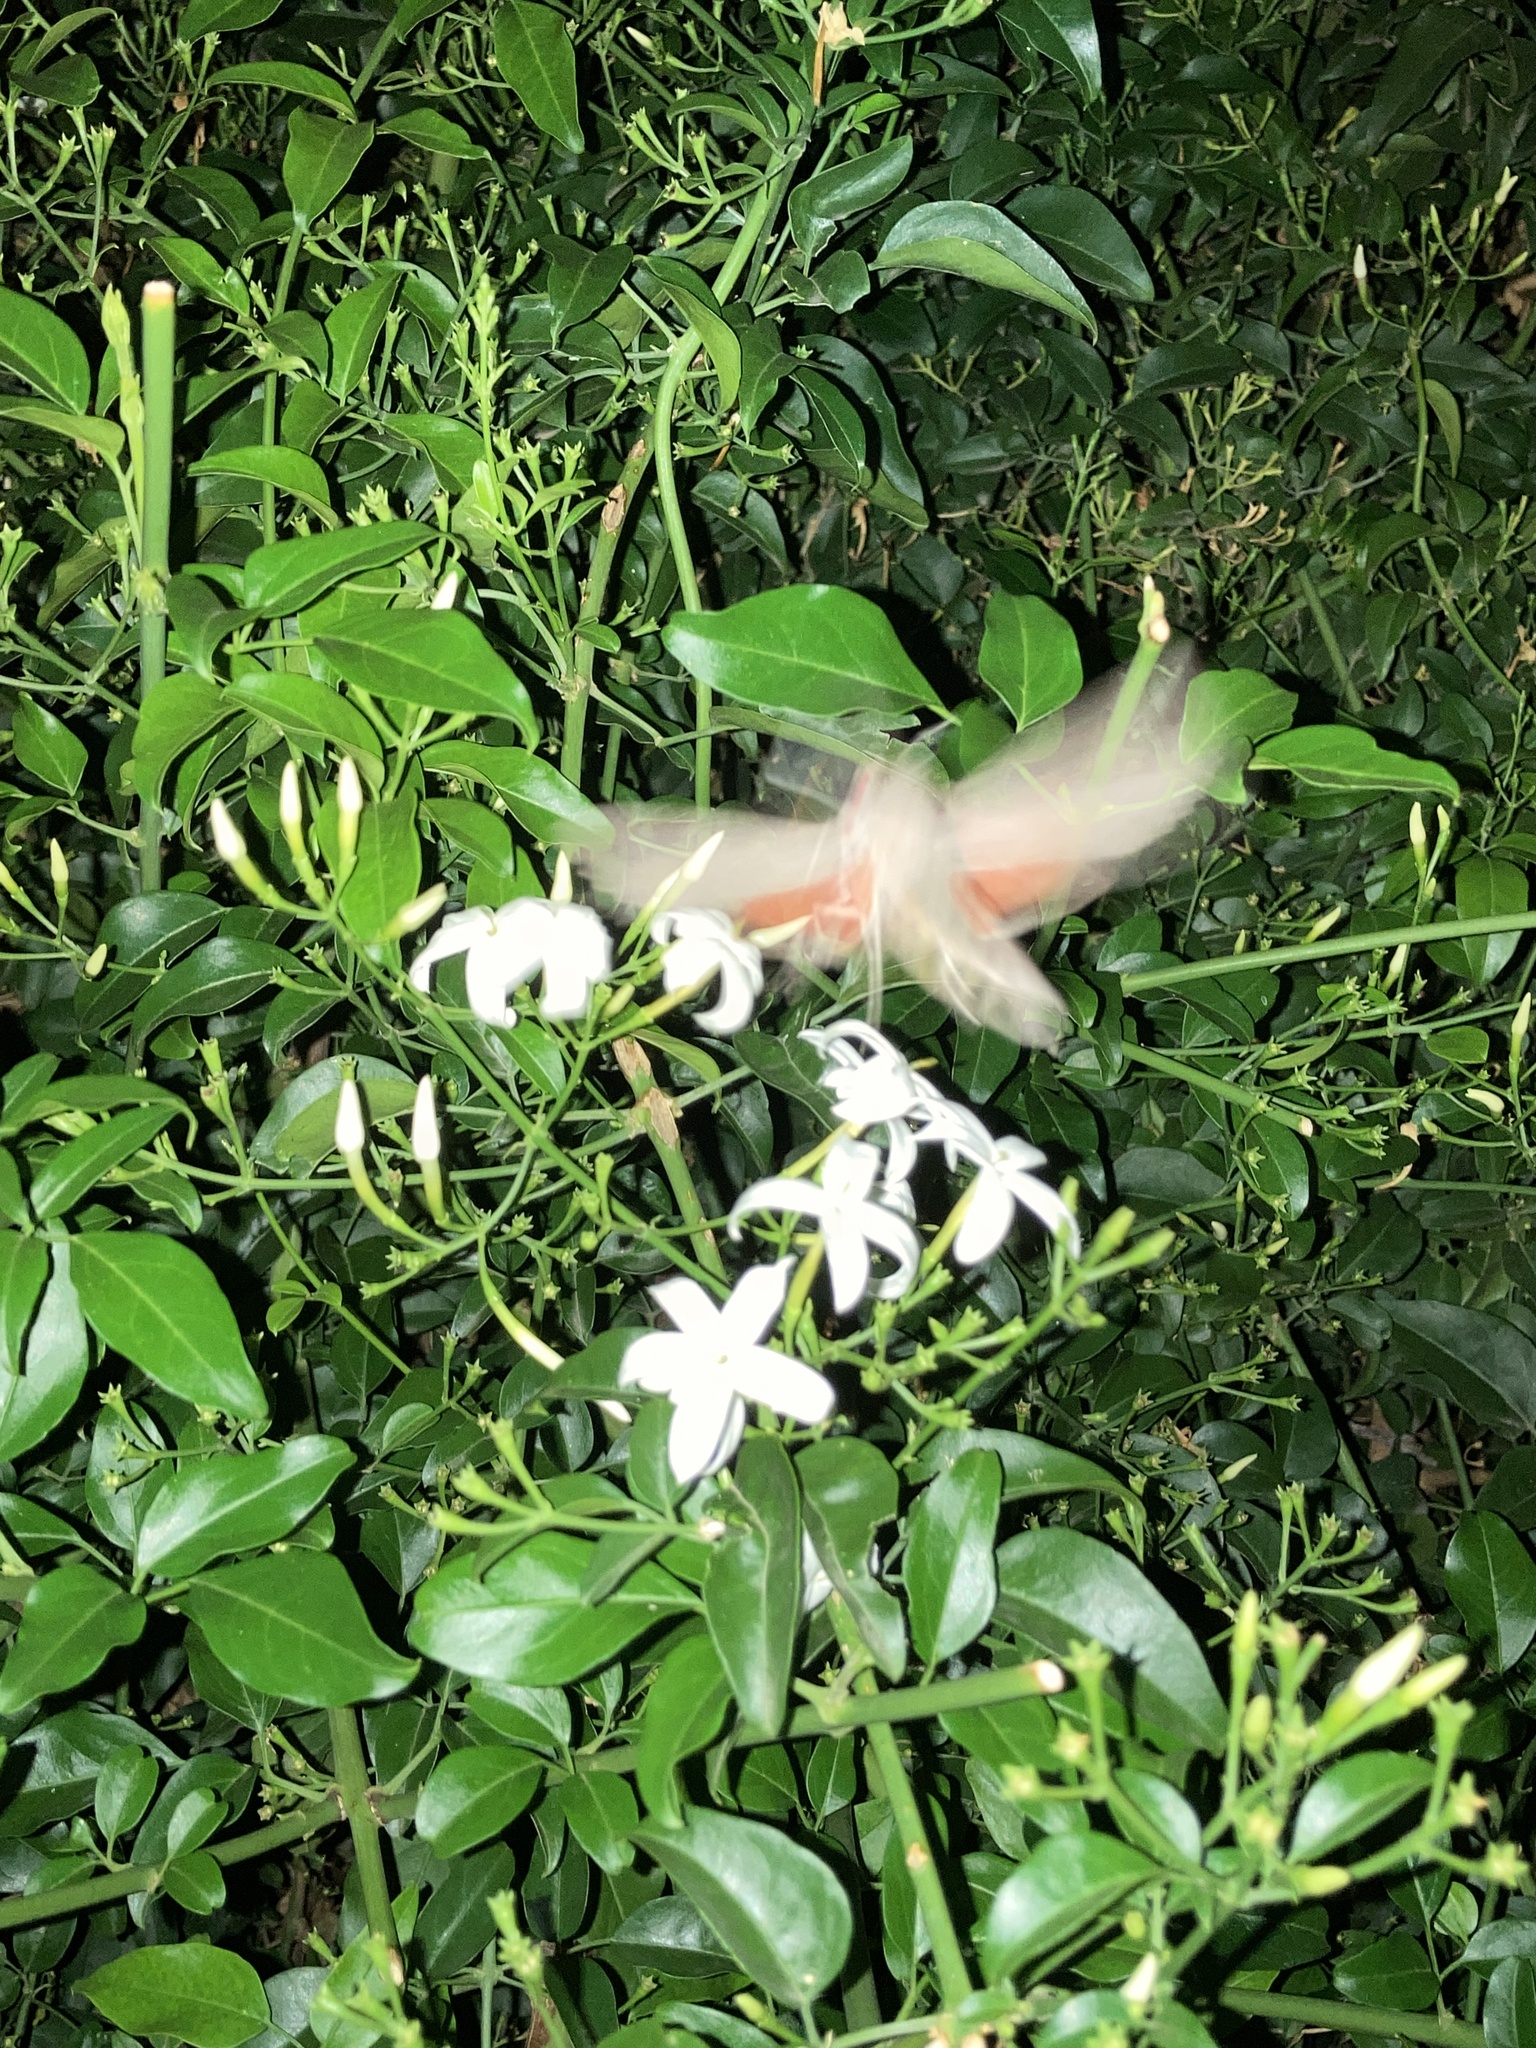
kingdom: Animalia
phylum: Arthropoda
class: Insecta
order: Lepidoptera
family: Sphingidae
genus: Erinnyis
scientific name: Erinnyis ello
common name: Ello sphinx
